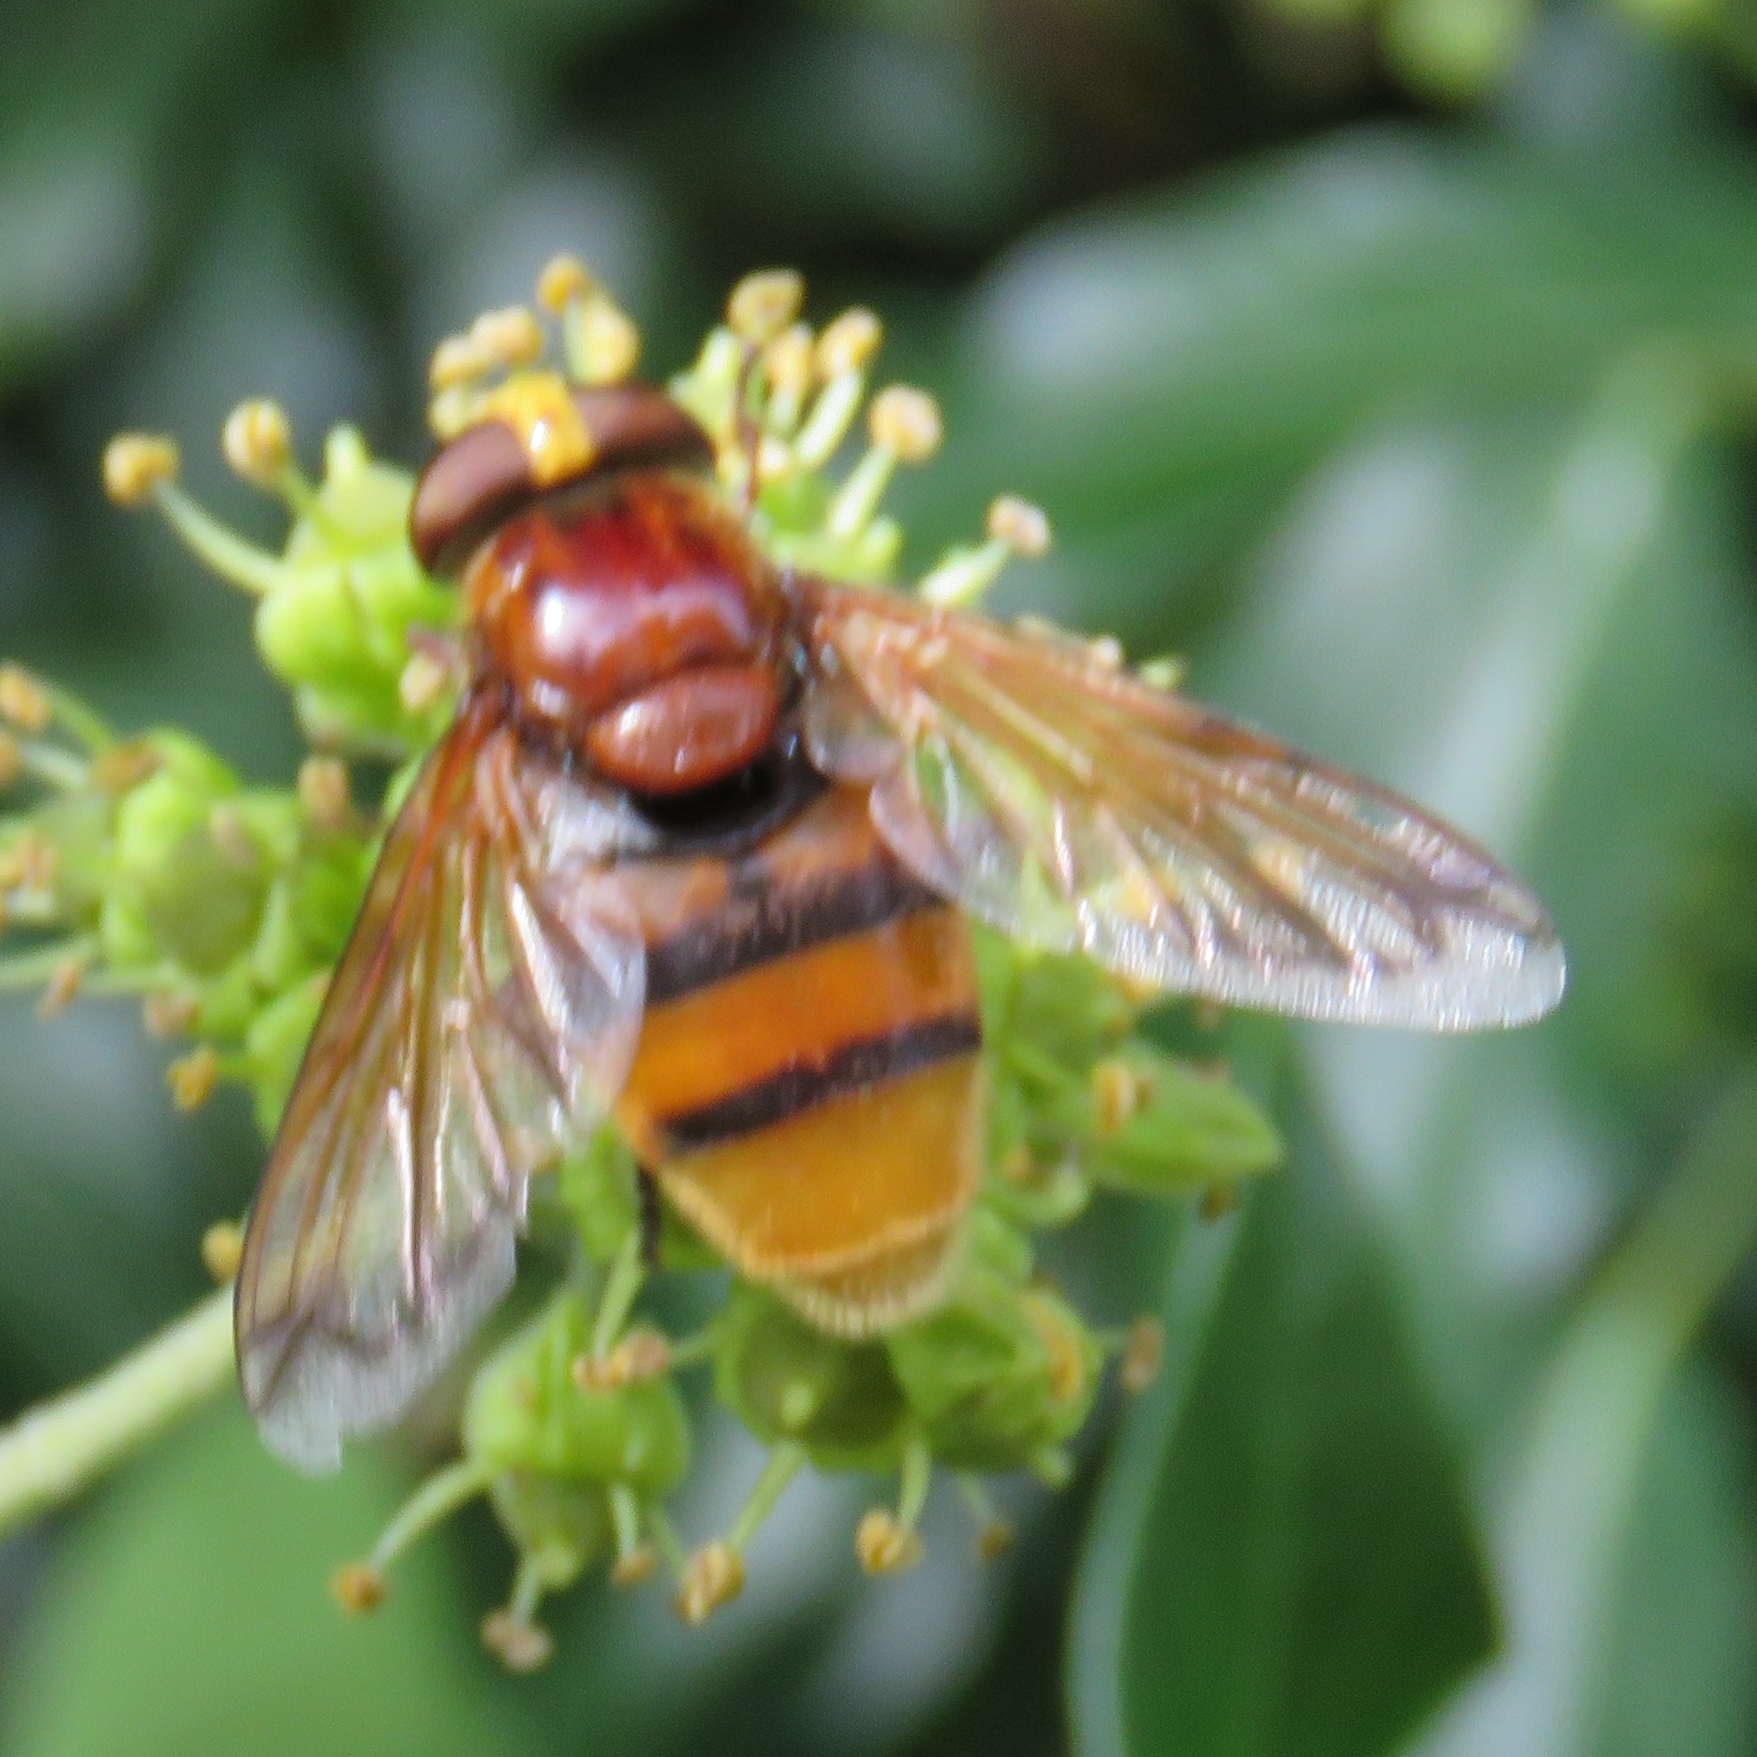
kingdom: Animalia
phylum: Arthropoda
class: Insecta
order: Diptera
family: Syrphidae
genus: Volucella
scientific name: Volucella zonaria
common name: Hornet hoverfly
